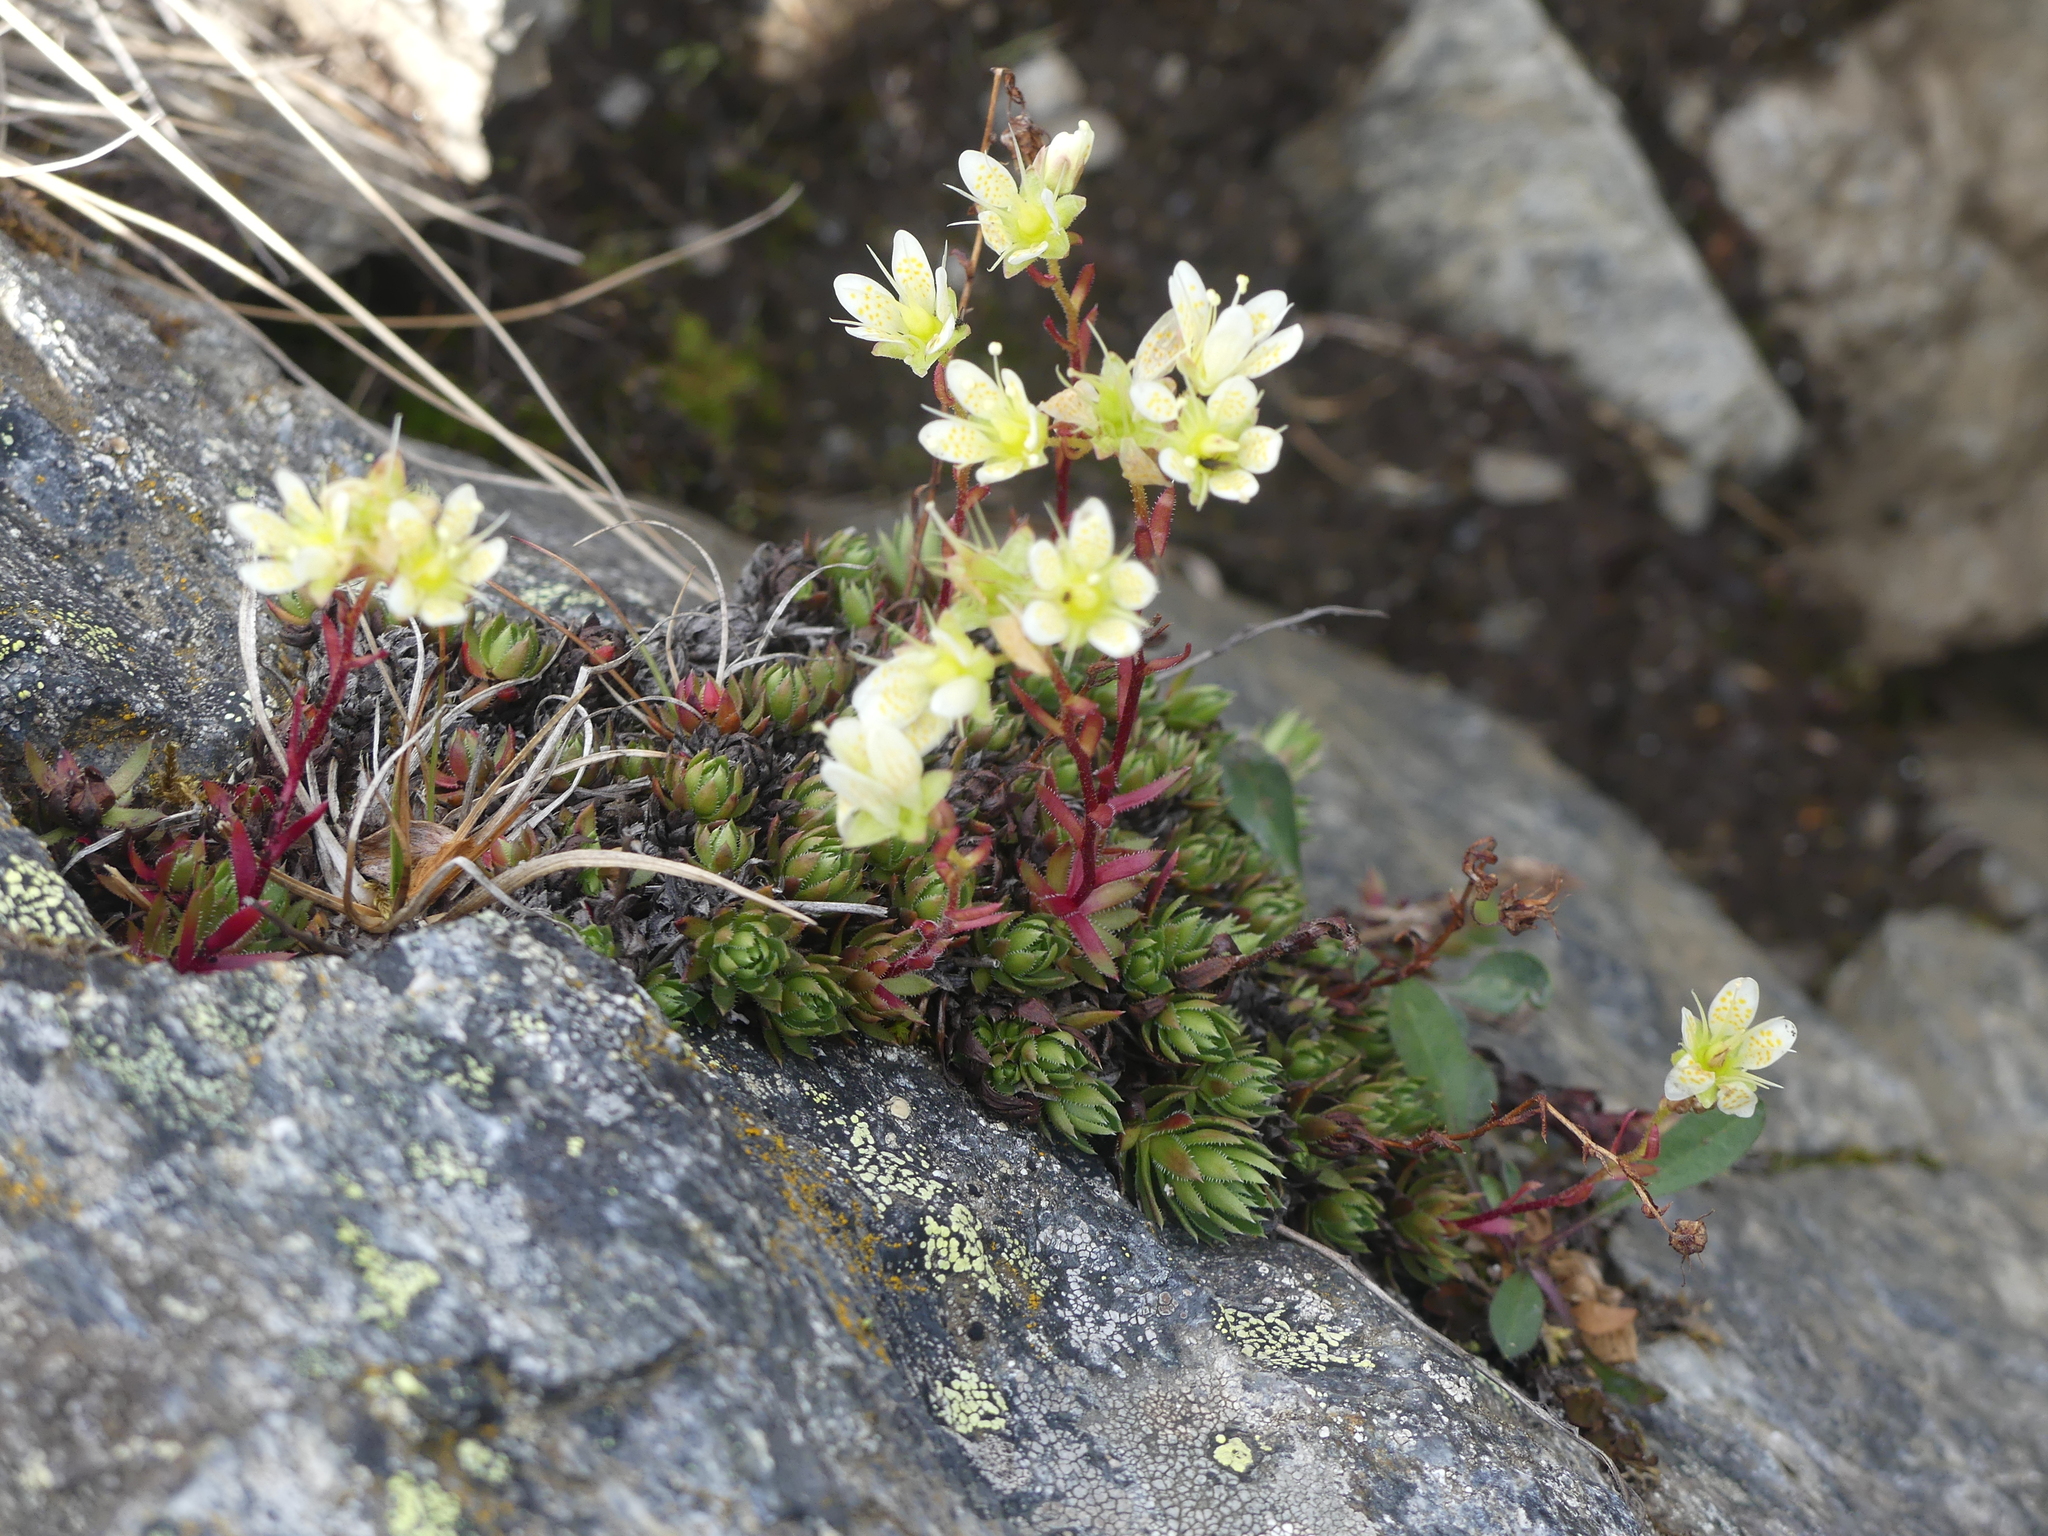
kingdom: Plantae
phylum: Tracheophyta
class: Magnoliopsida
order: Saxifragales
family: Saxifragaceae
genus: Saxifraga
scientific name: Saxifraga bronchialis
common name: Matted saxifrage
